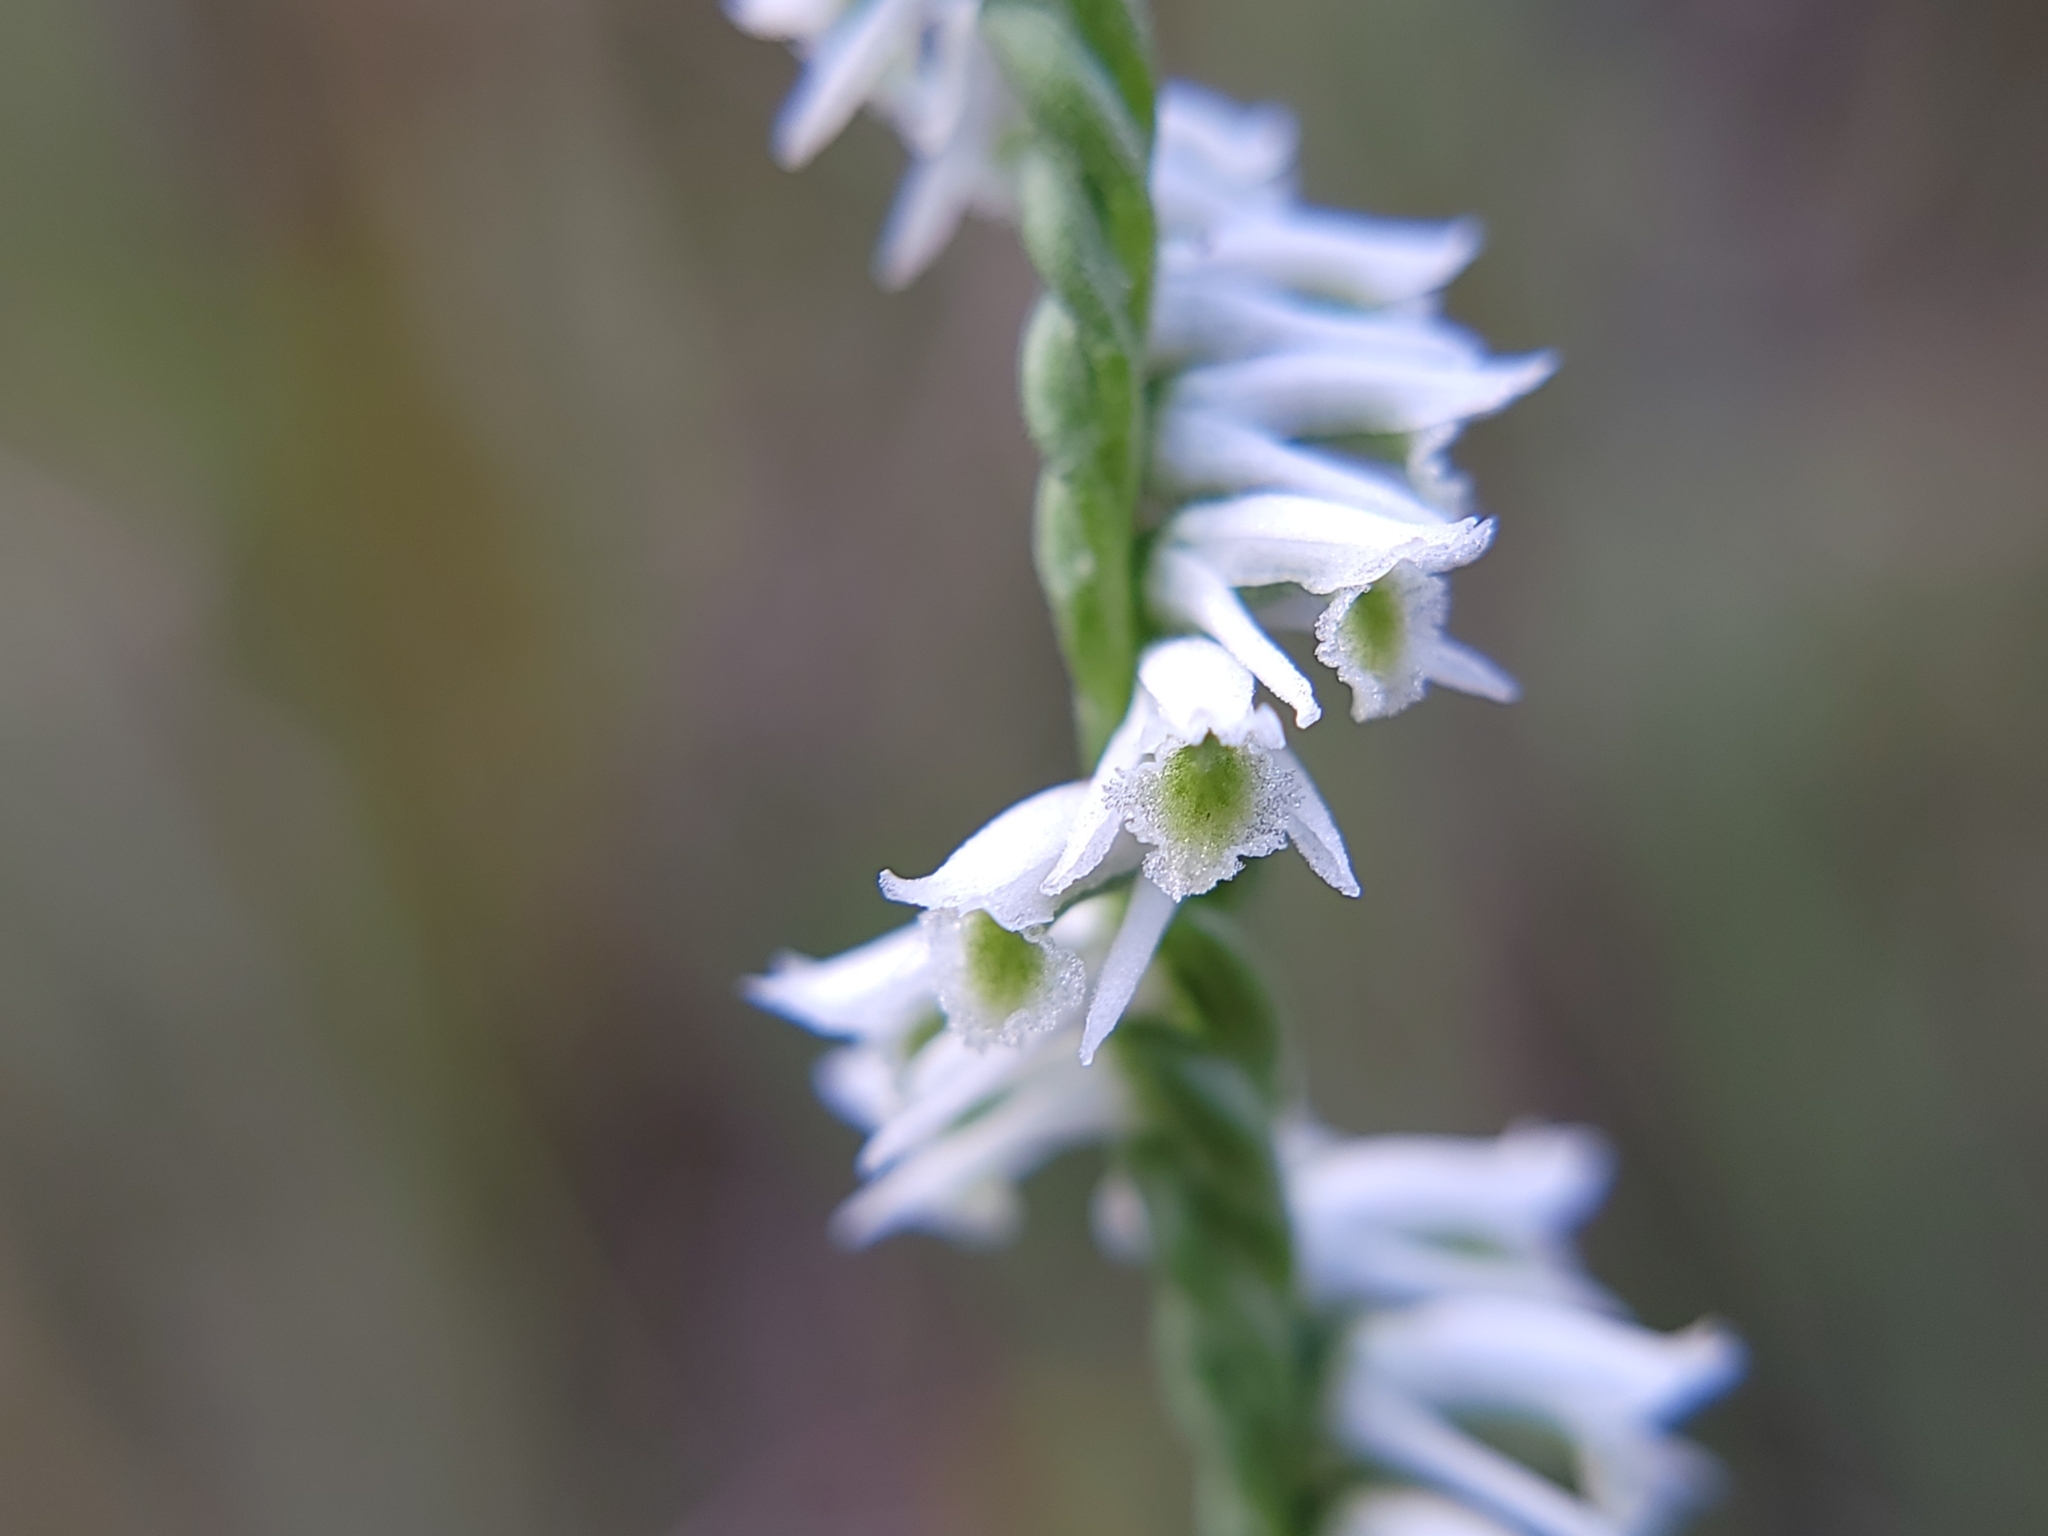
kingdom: Plantae
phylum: Tracheophyta
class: Liliopsida
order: Asparagales
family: Orchidaceae
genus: Spiranthes
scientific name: Spiranthes lacera
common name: Northern slender ladies'-tresses
